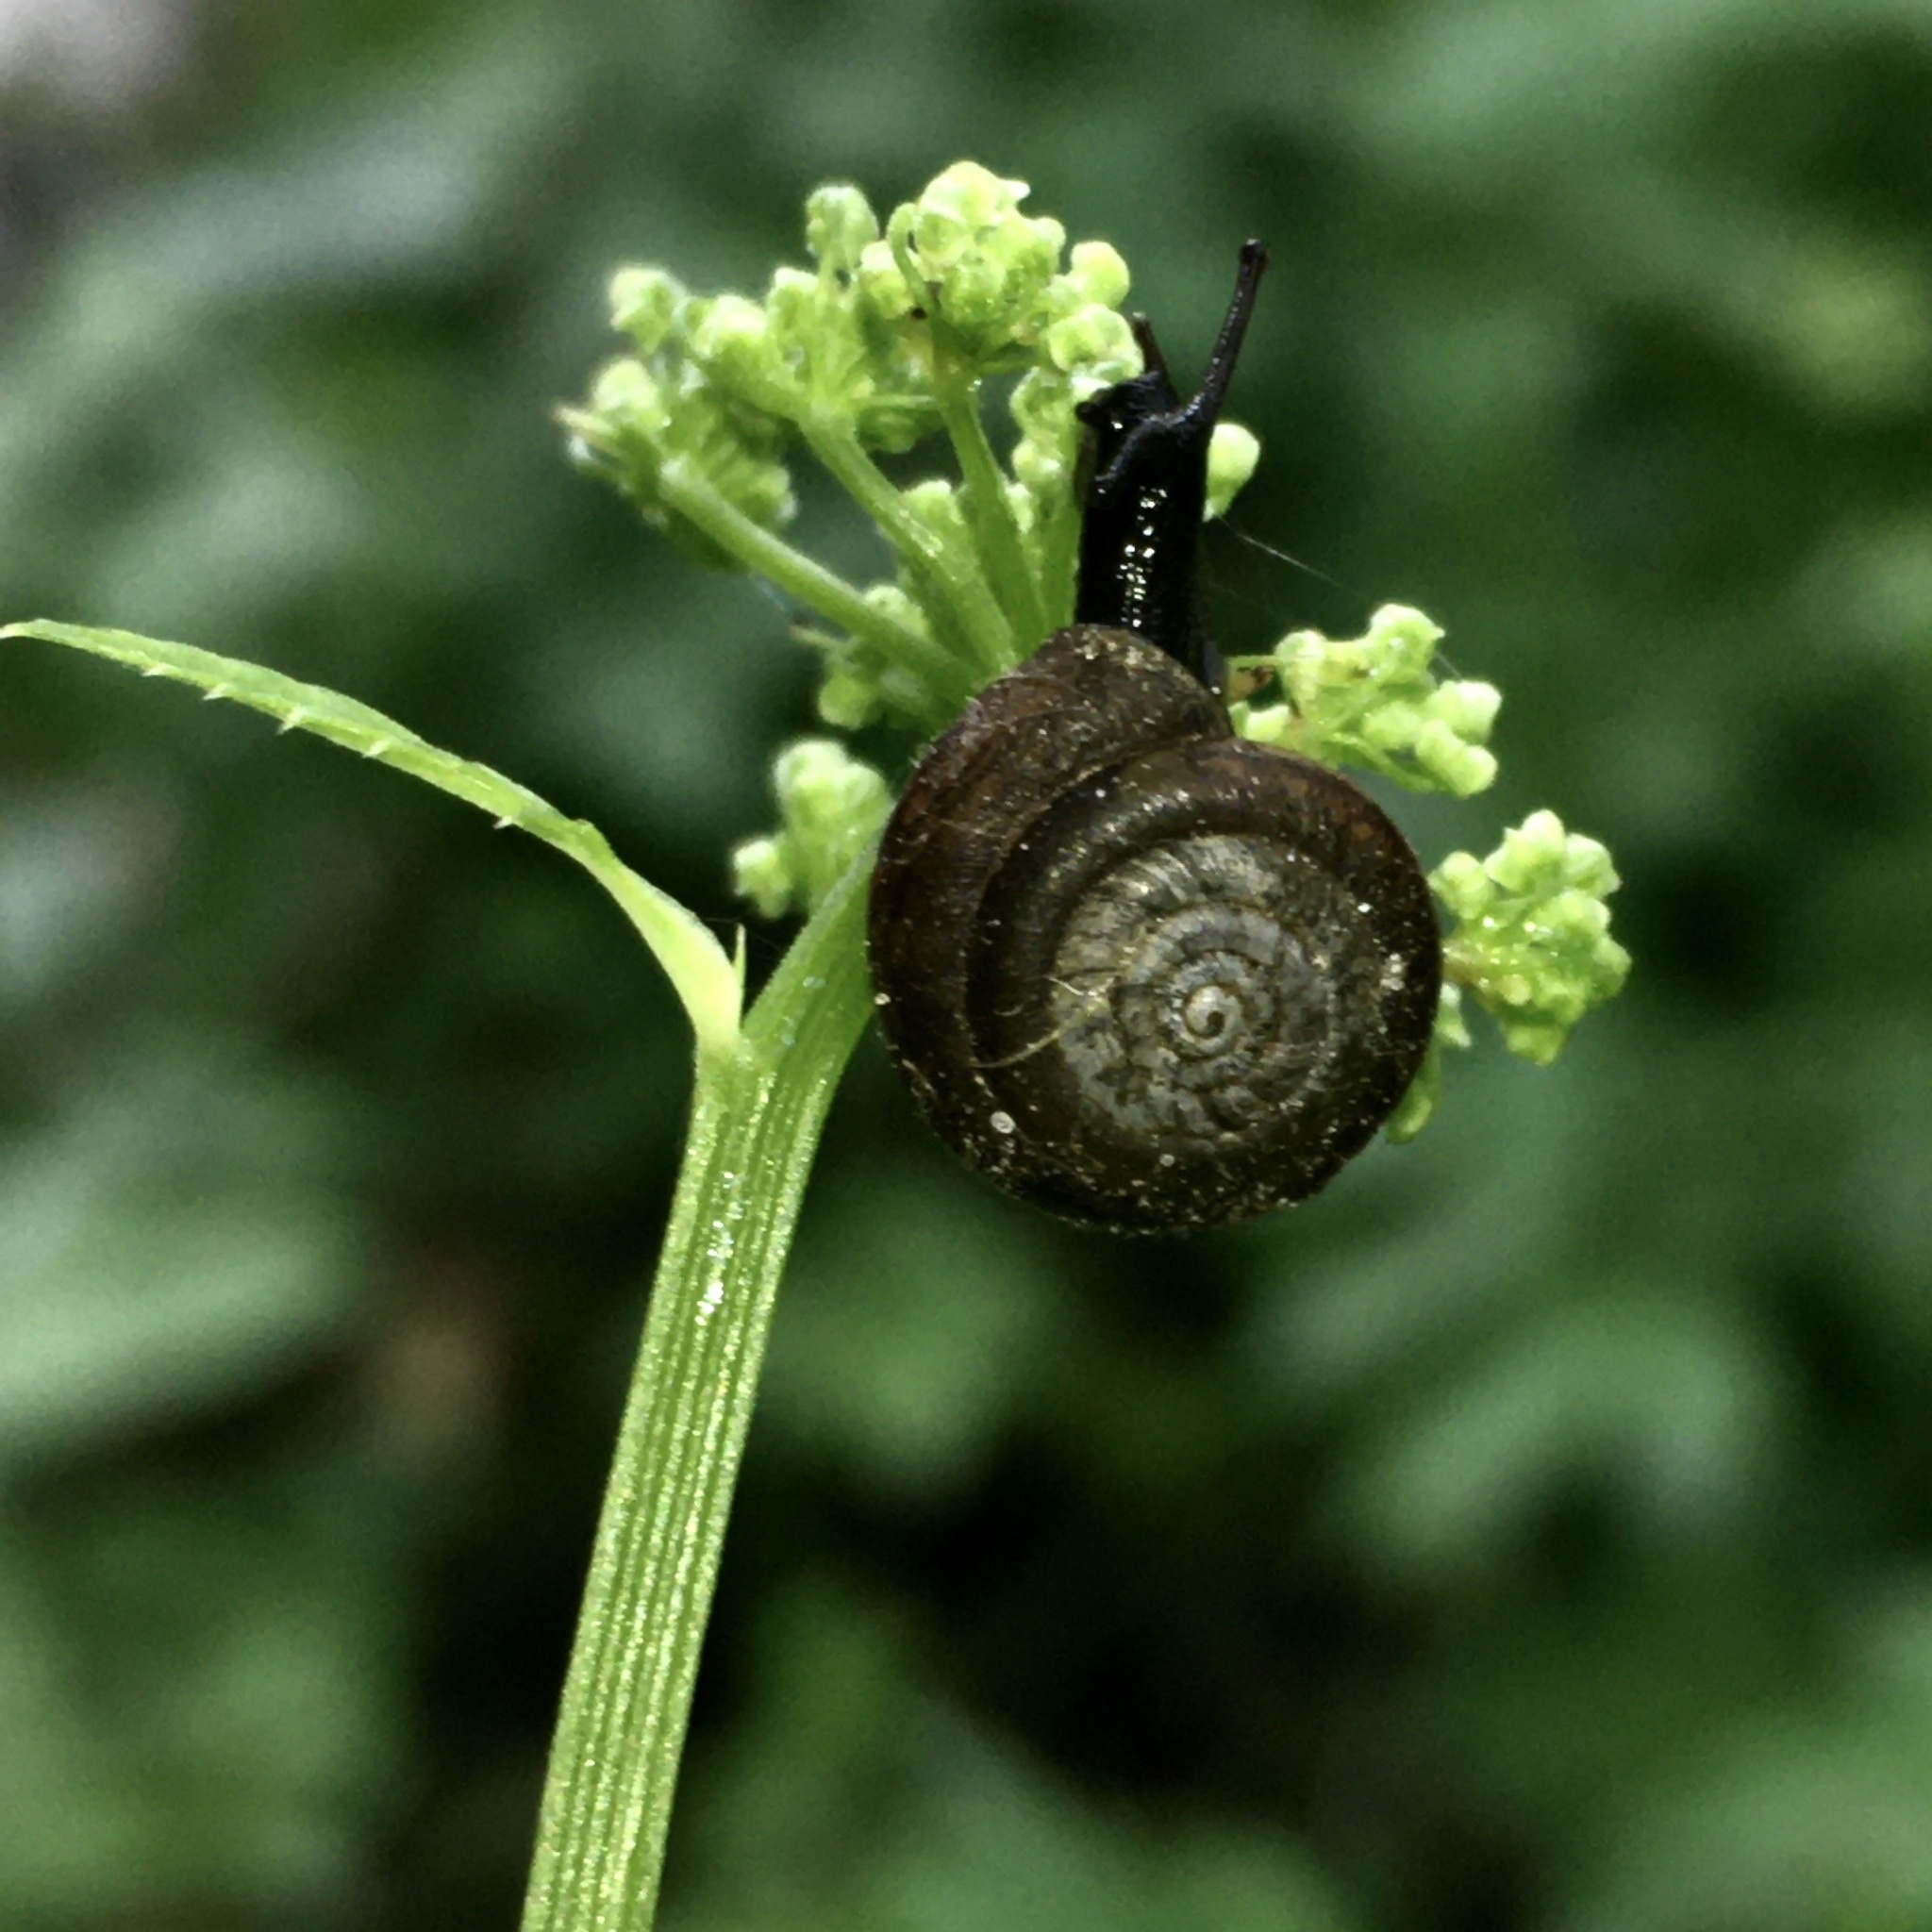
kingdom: Animalia
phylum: Mollusca
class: Gastropoda
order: Stylommatophora
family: Hygromiidae
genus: Trochulus
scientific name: Trochulus hispidus
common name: Hairy snail
